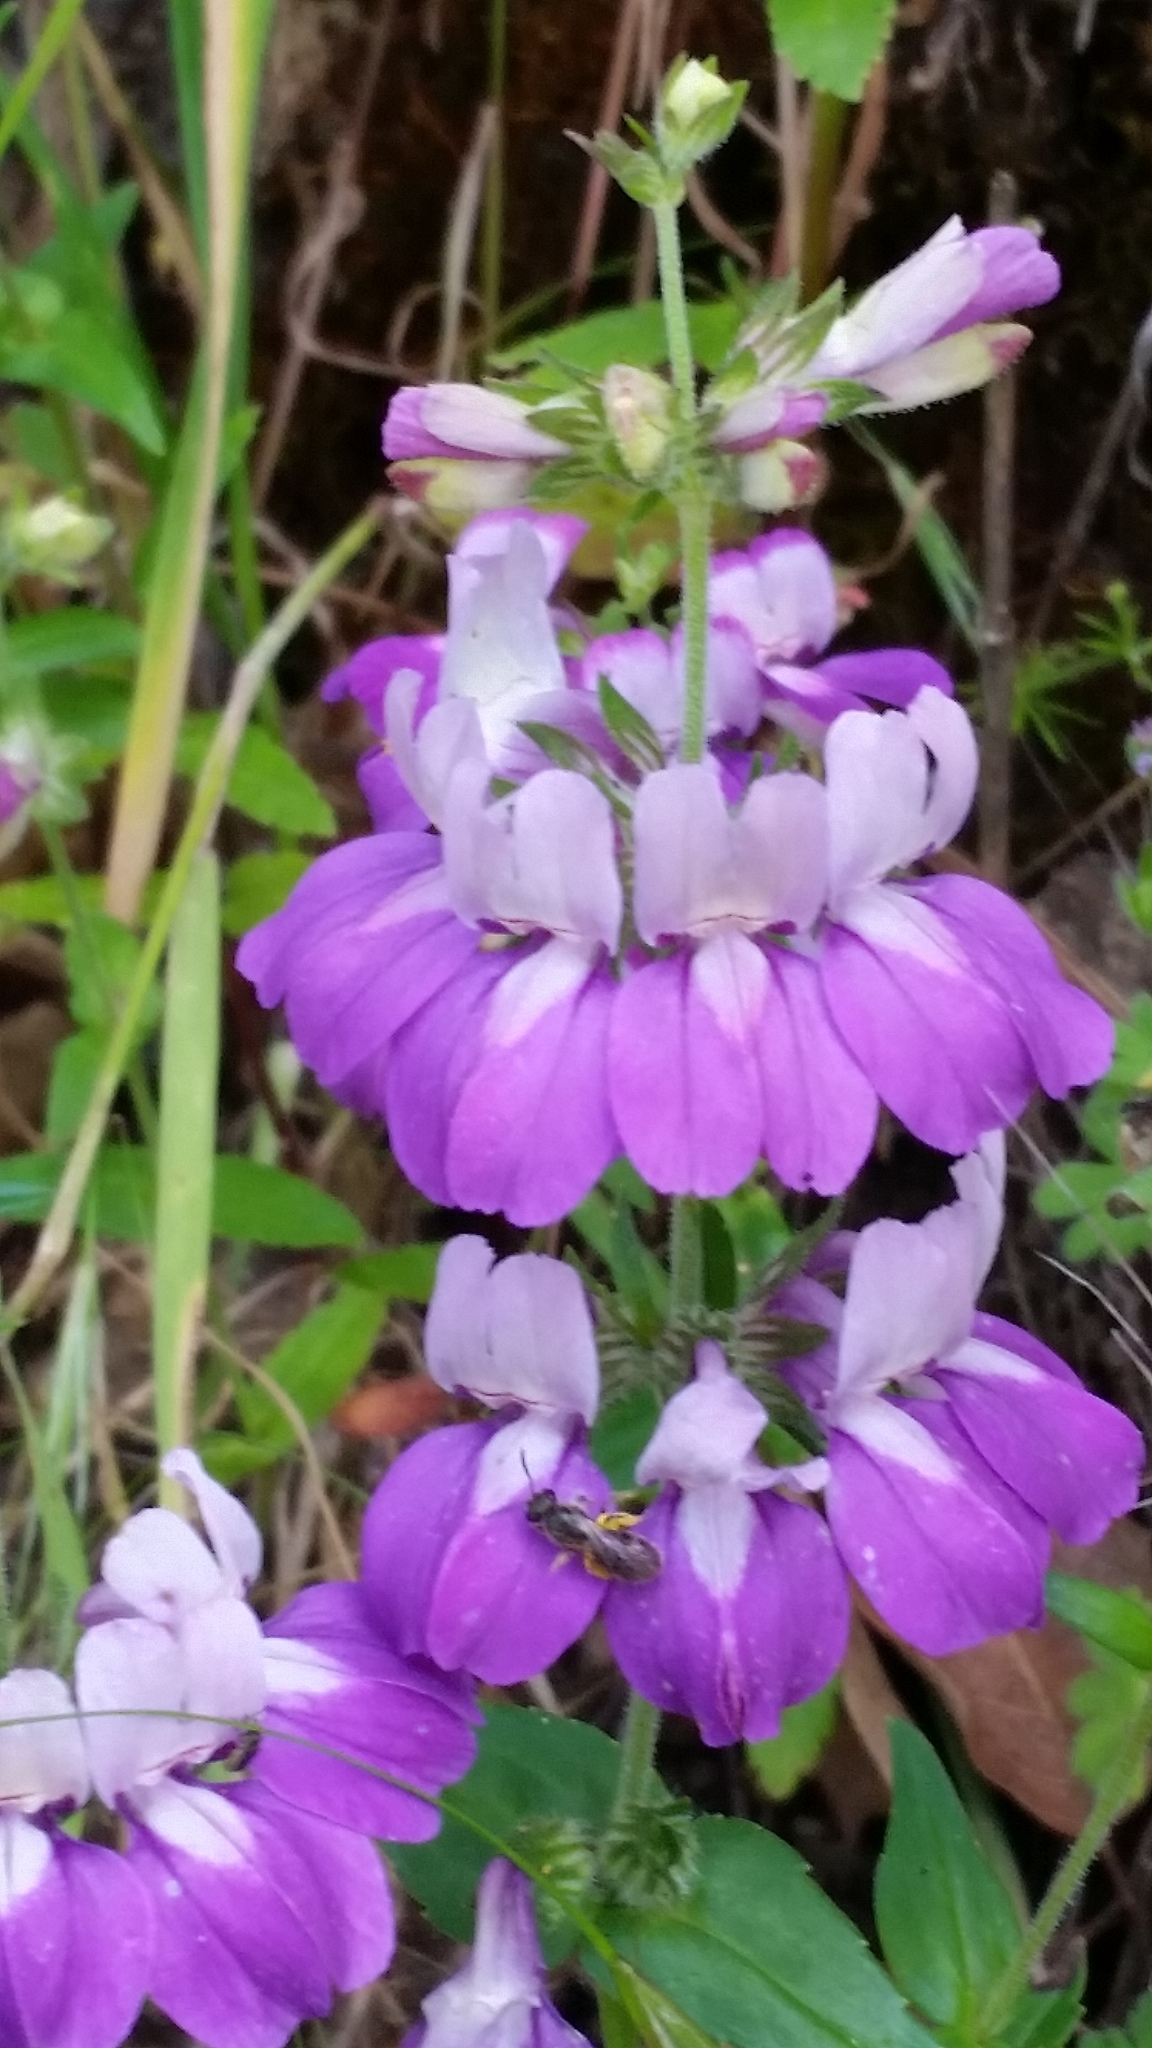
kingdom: Plantae
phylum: Tracheophyta
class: Magnoliopsida
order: Lamiales
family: Plantaginaceae
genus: Collinsia
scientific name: Collinsia heterophylla
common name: Chinese-houses
